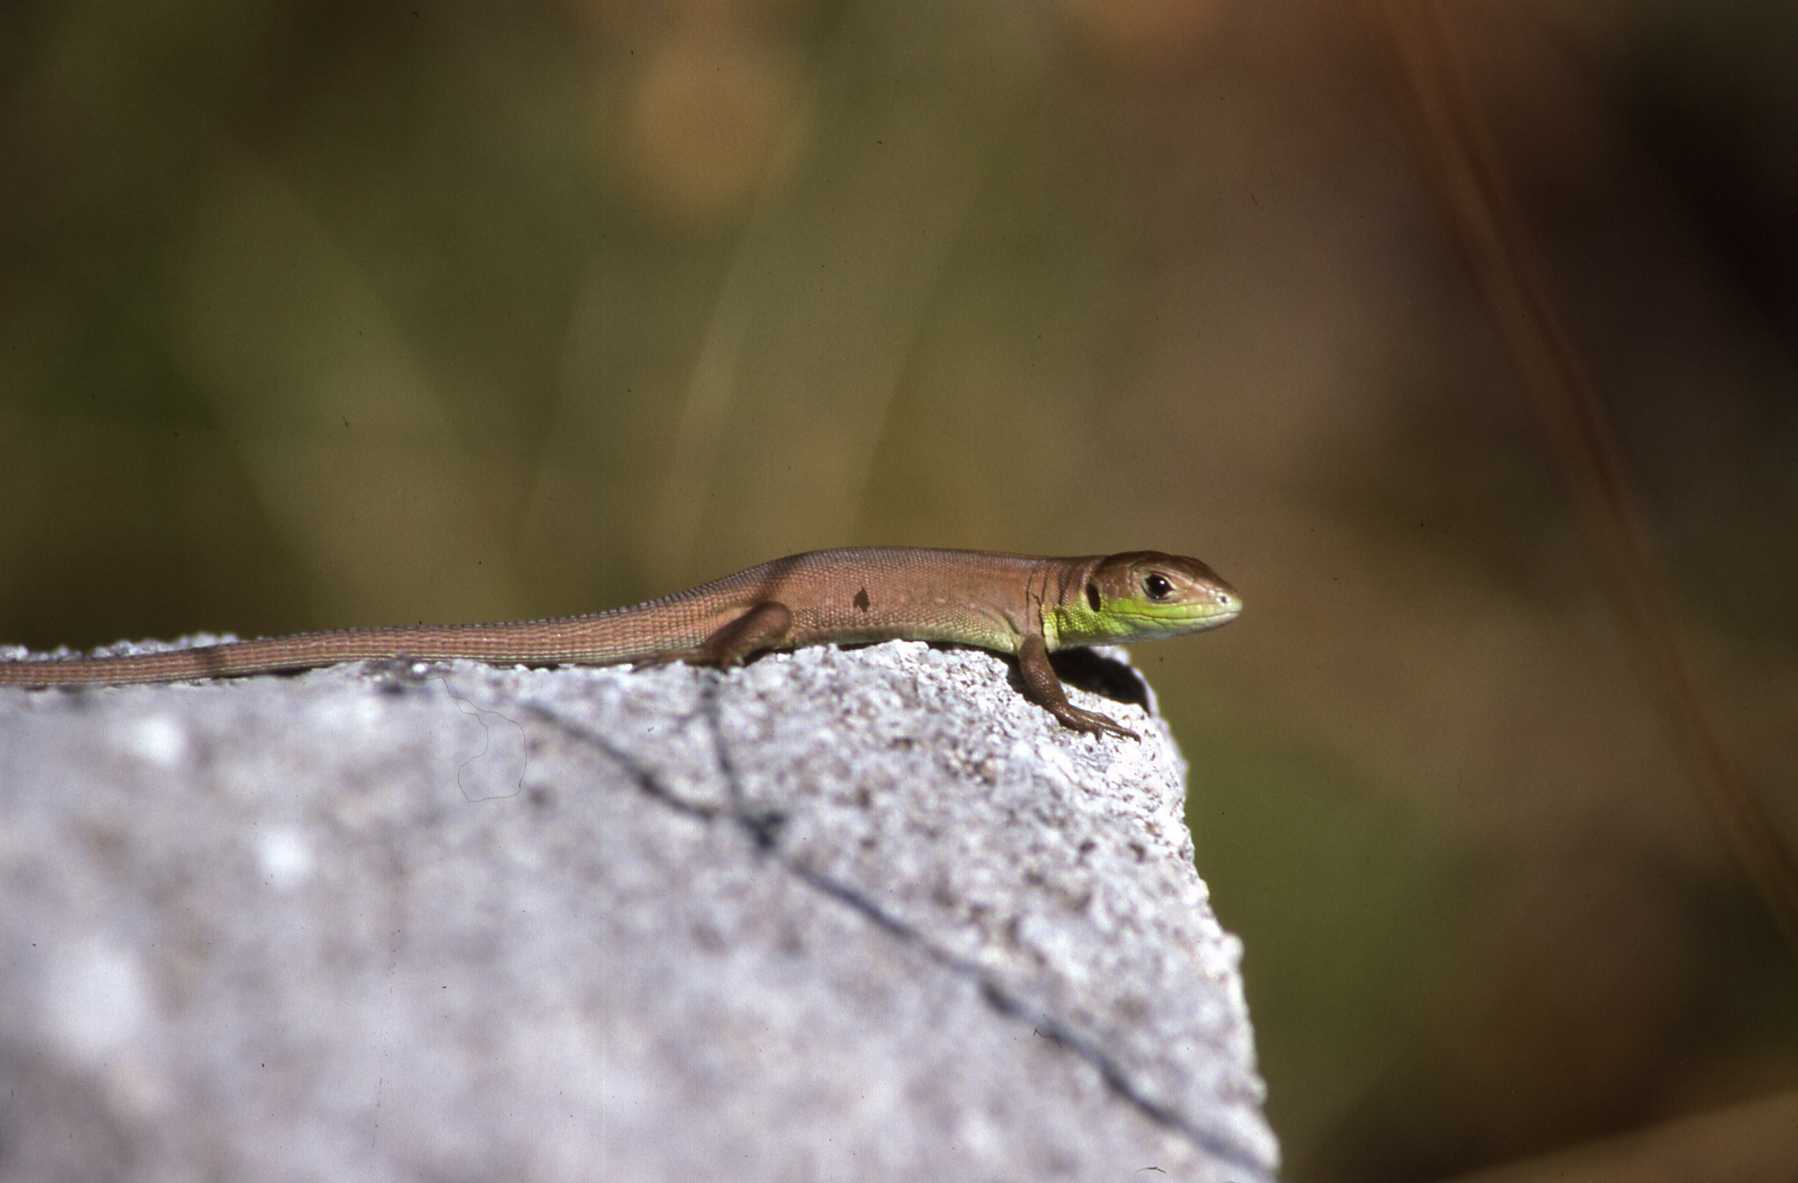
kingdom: Animalia
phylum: Chordata
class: Squamata
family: Lacertidae
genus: Lacerta
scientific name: Lacerta bilineata
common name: Western green lizard
